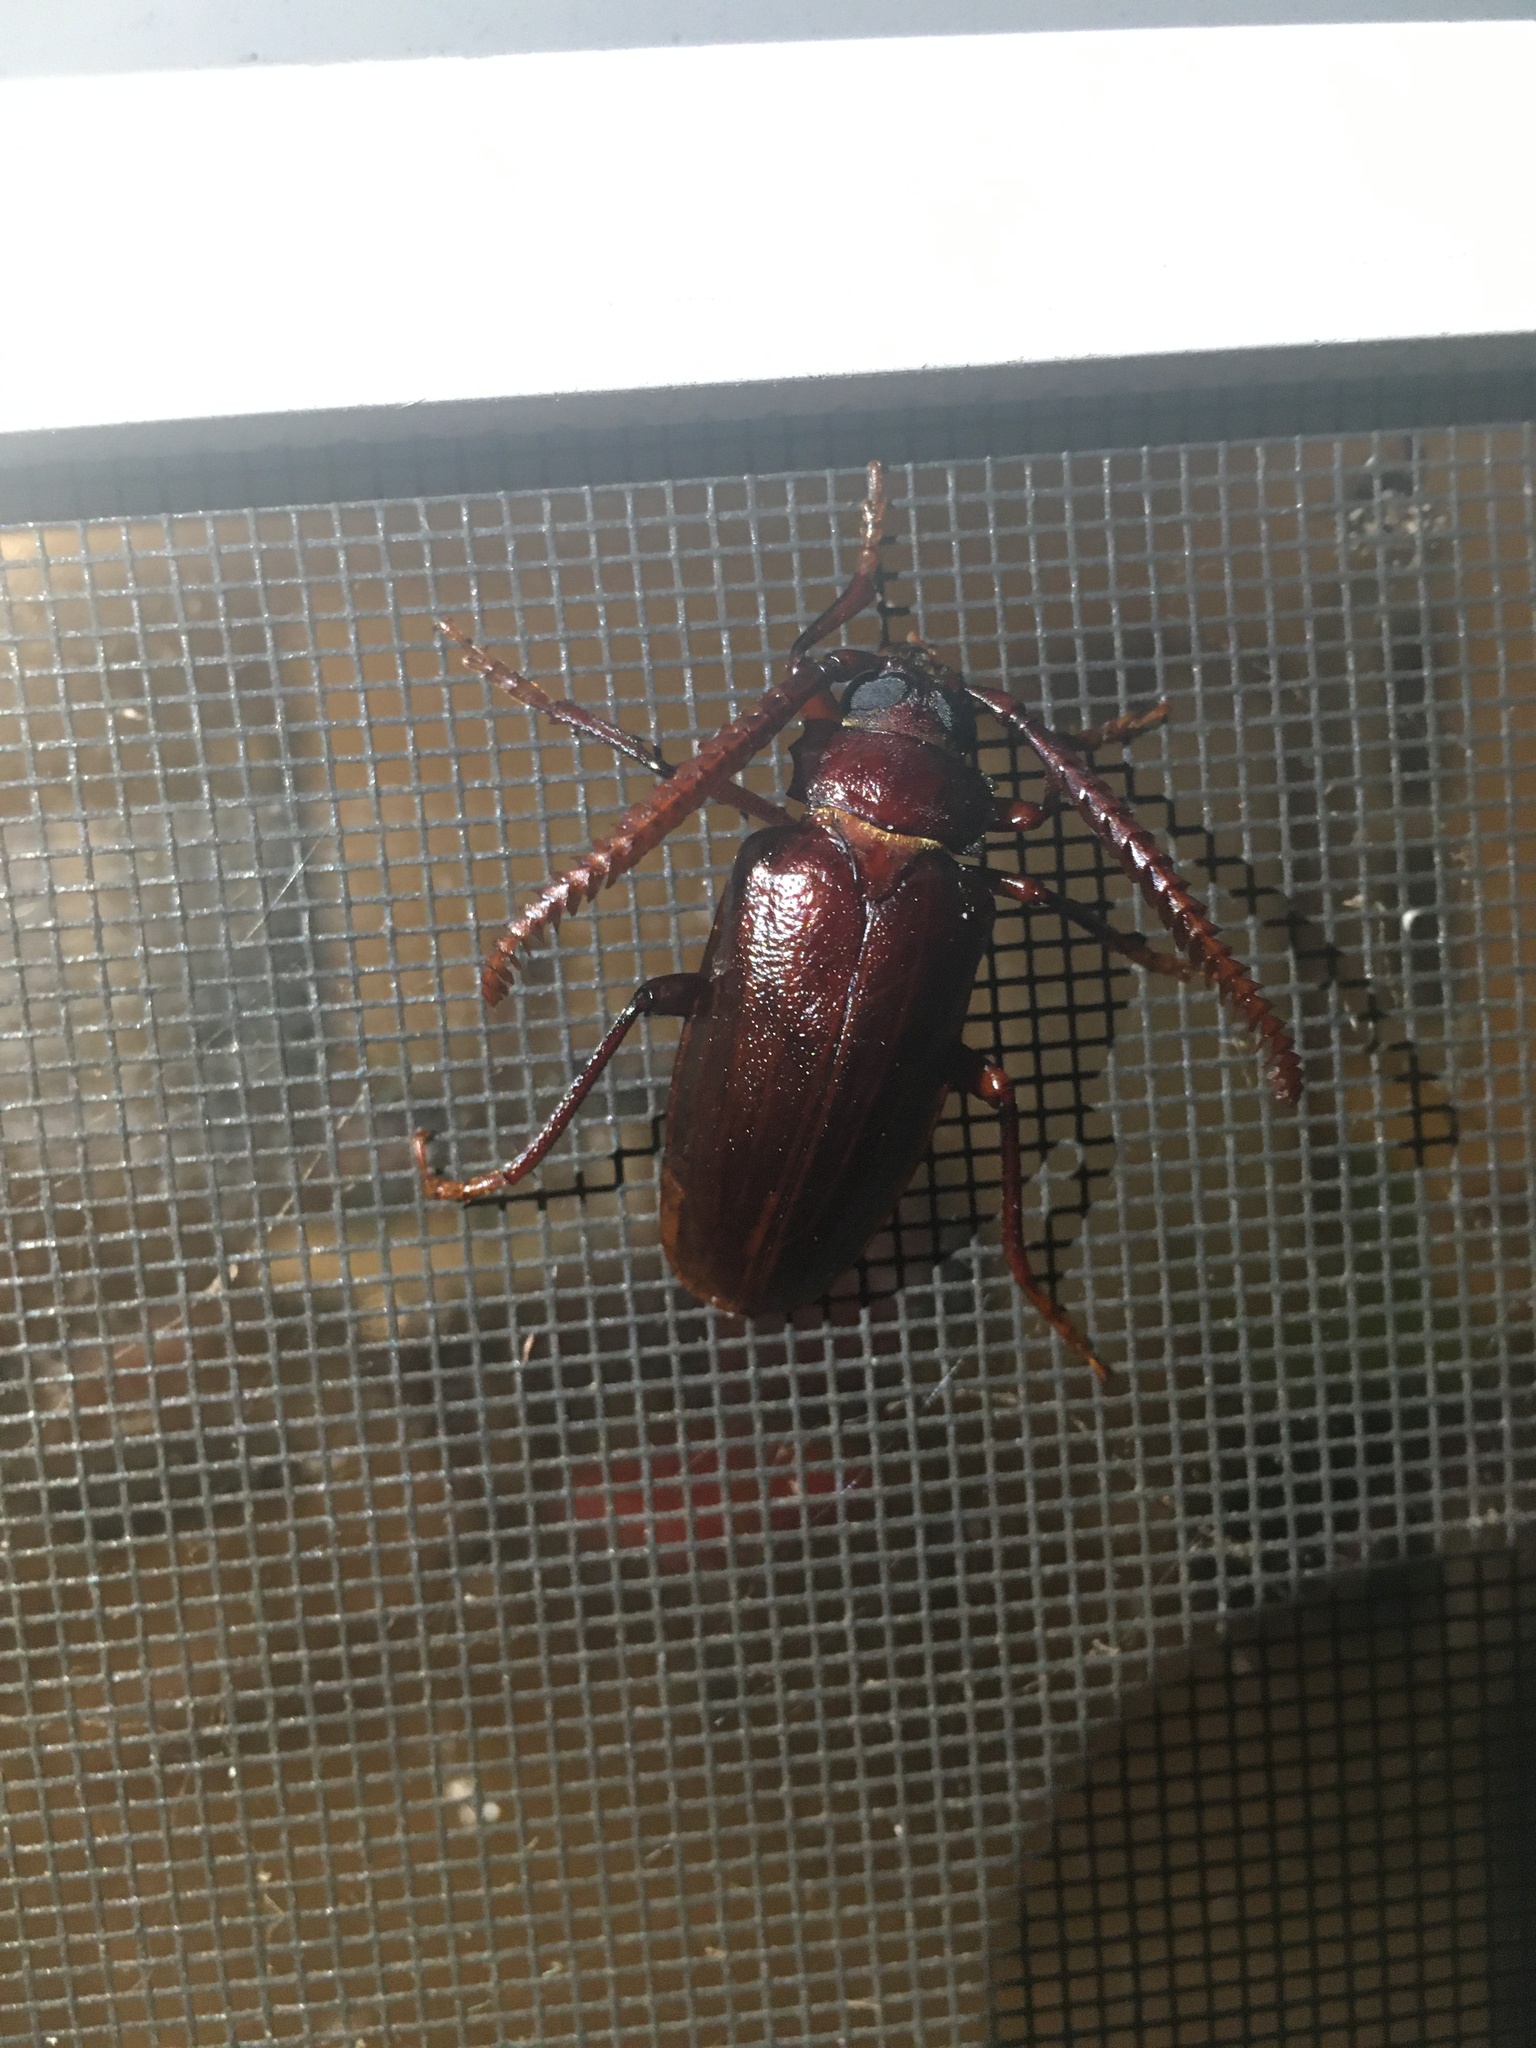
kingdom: Animalia
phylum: Arthropoda
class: Insecta
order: Coleoptera
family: Cerambycidae
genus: Prionus
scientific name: Prionus imbricornis
